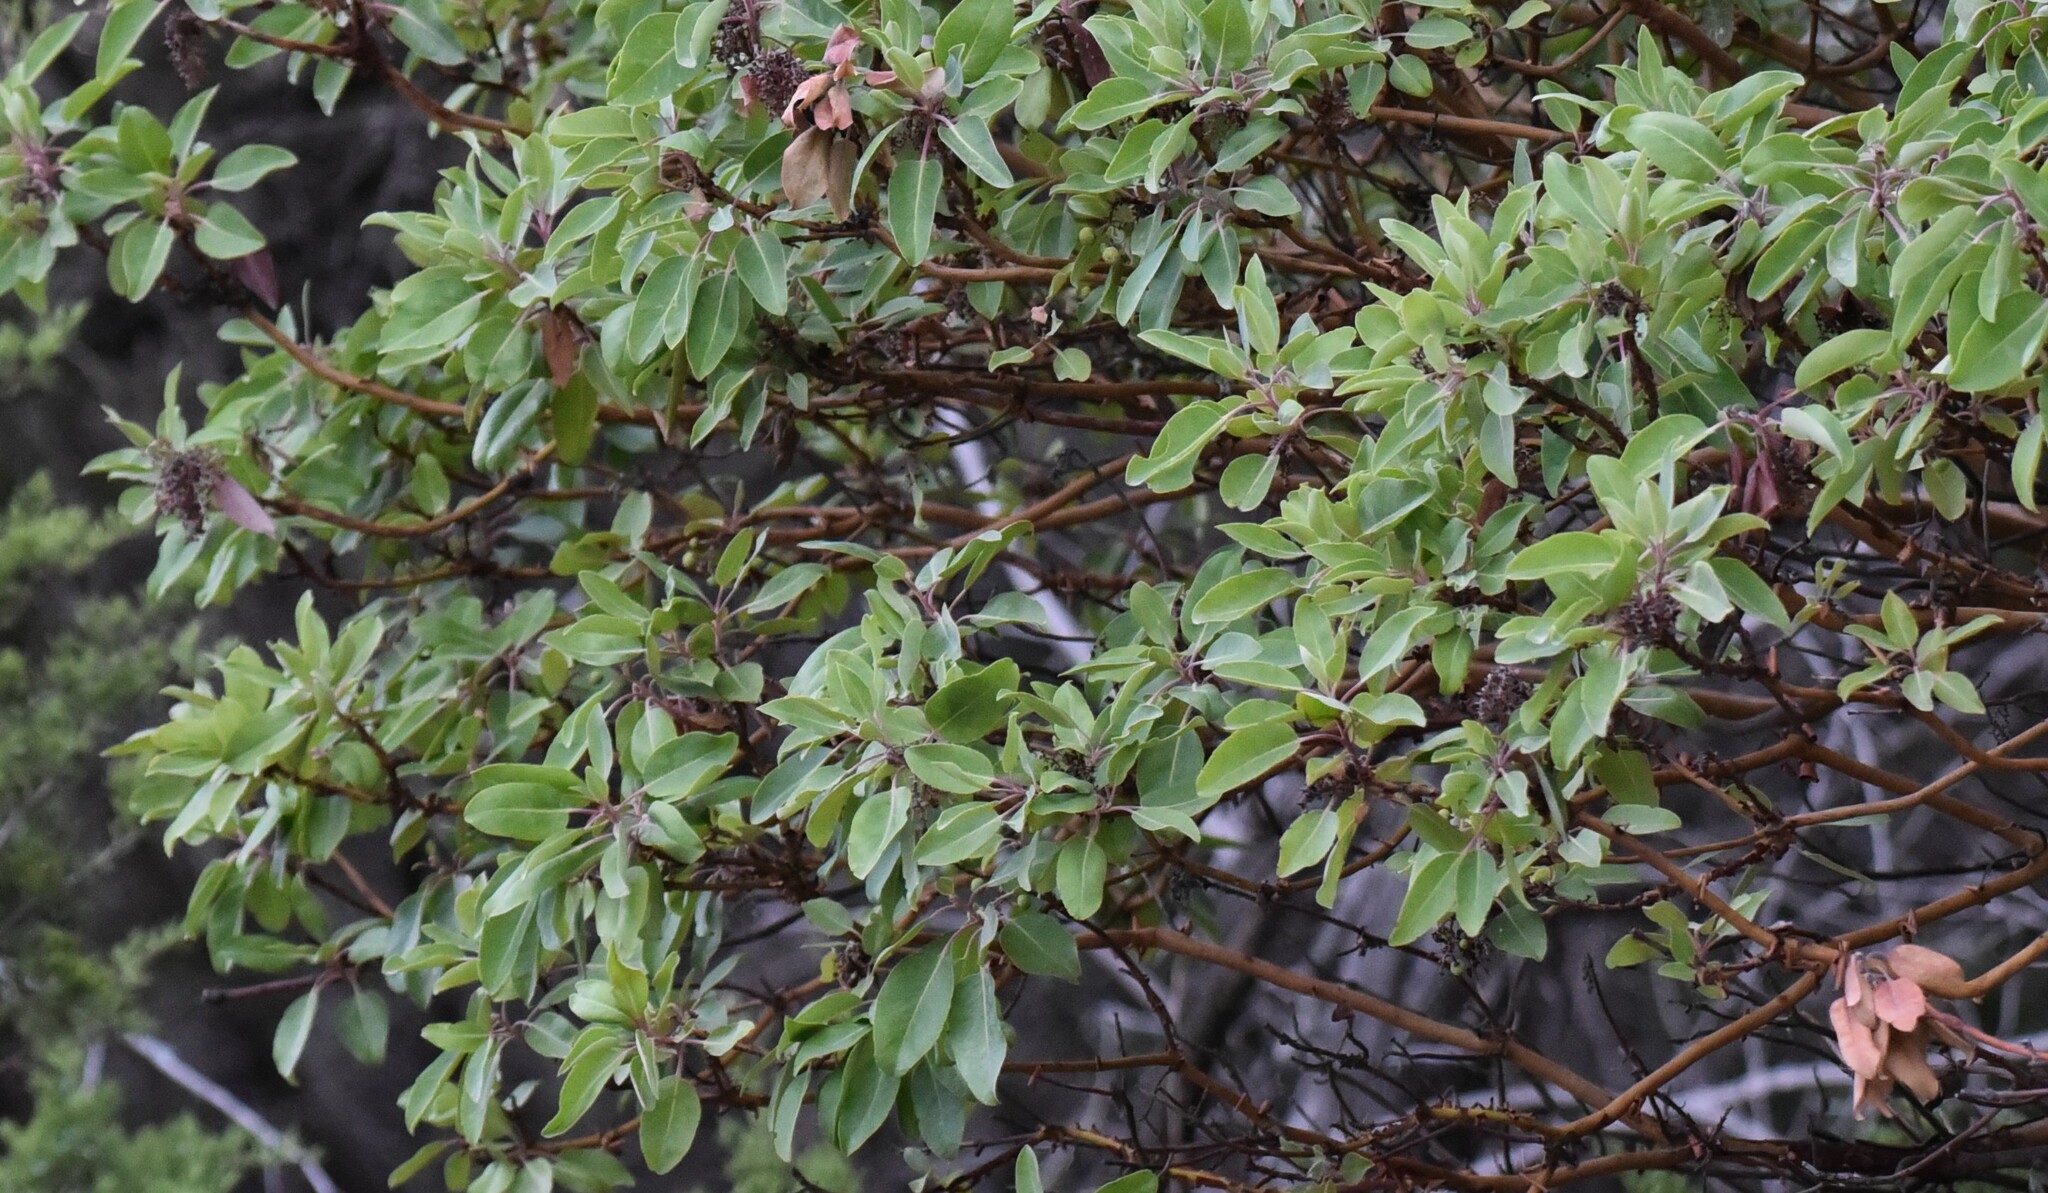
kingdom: Plantae
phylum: Tracheophyta
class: Magnoliopsida
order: Ericales
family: Ericaceae
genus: Arbutus
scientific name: Arbutus xalapensis
